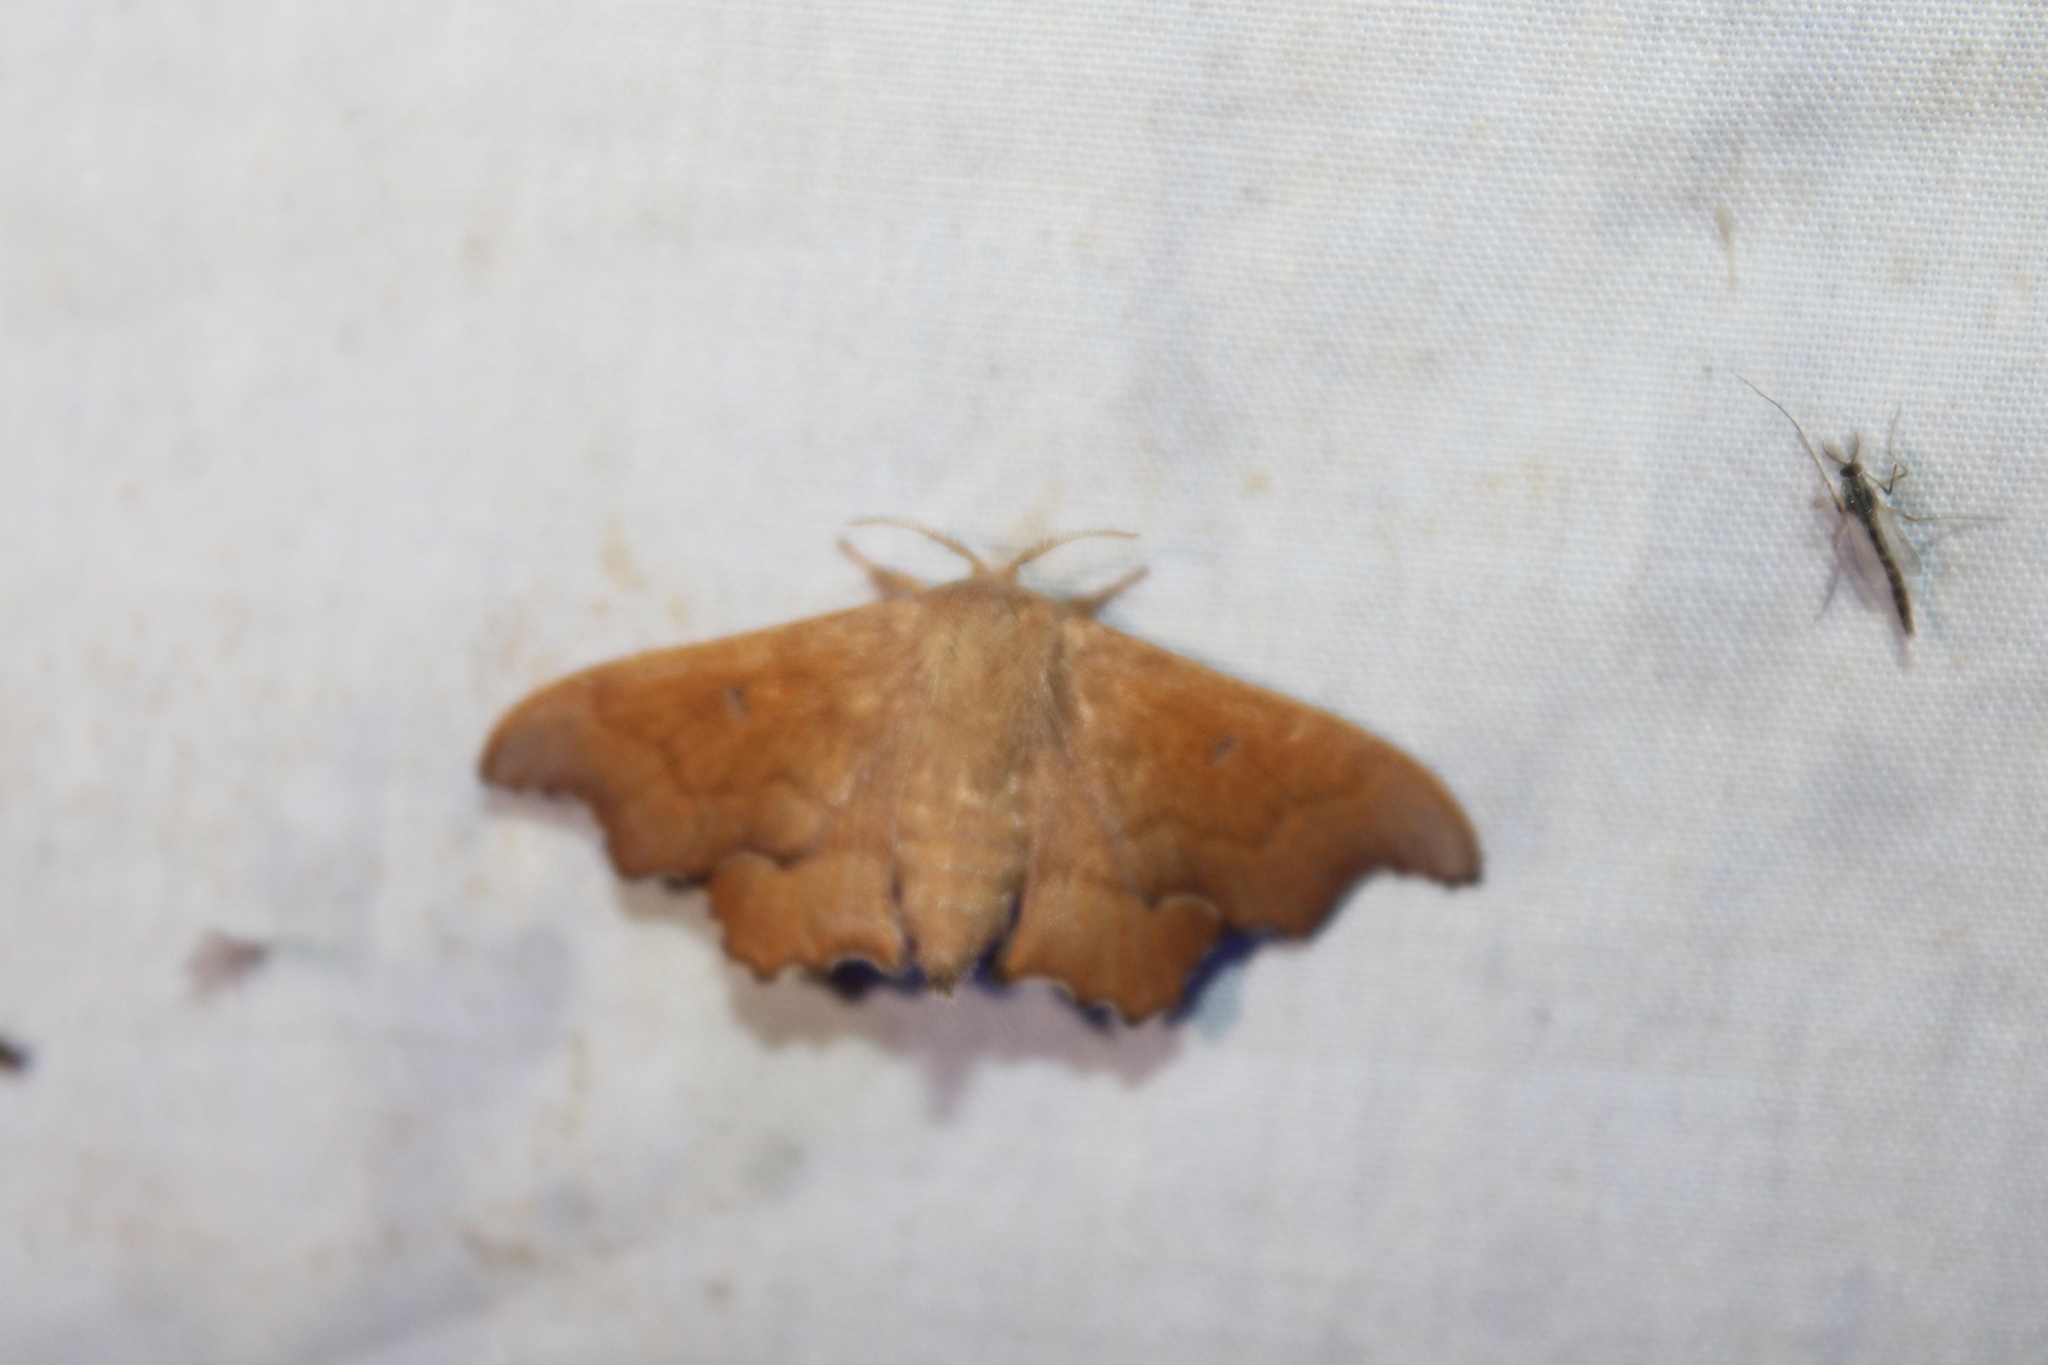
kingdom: Animalia
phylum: Arthropoda
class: Insecta
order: Lepidoptera
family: Mimallonidae
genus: Lacosoma
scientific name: Lacosoma chiridota
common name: Scalloped sack-bearer moth
